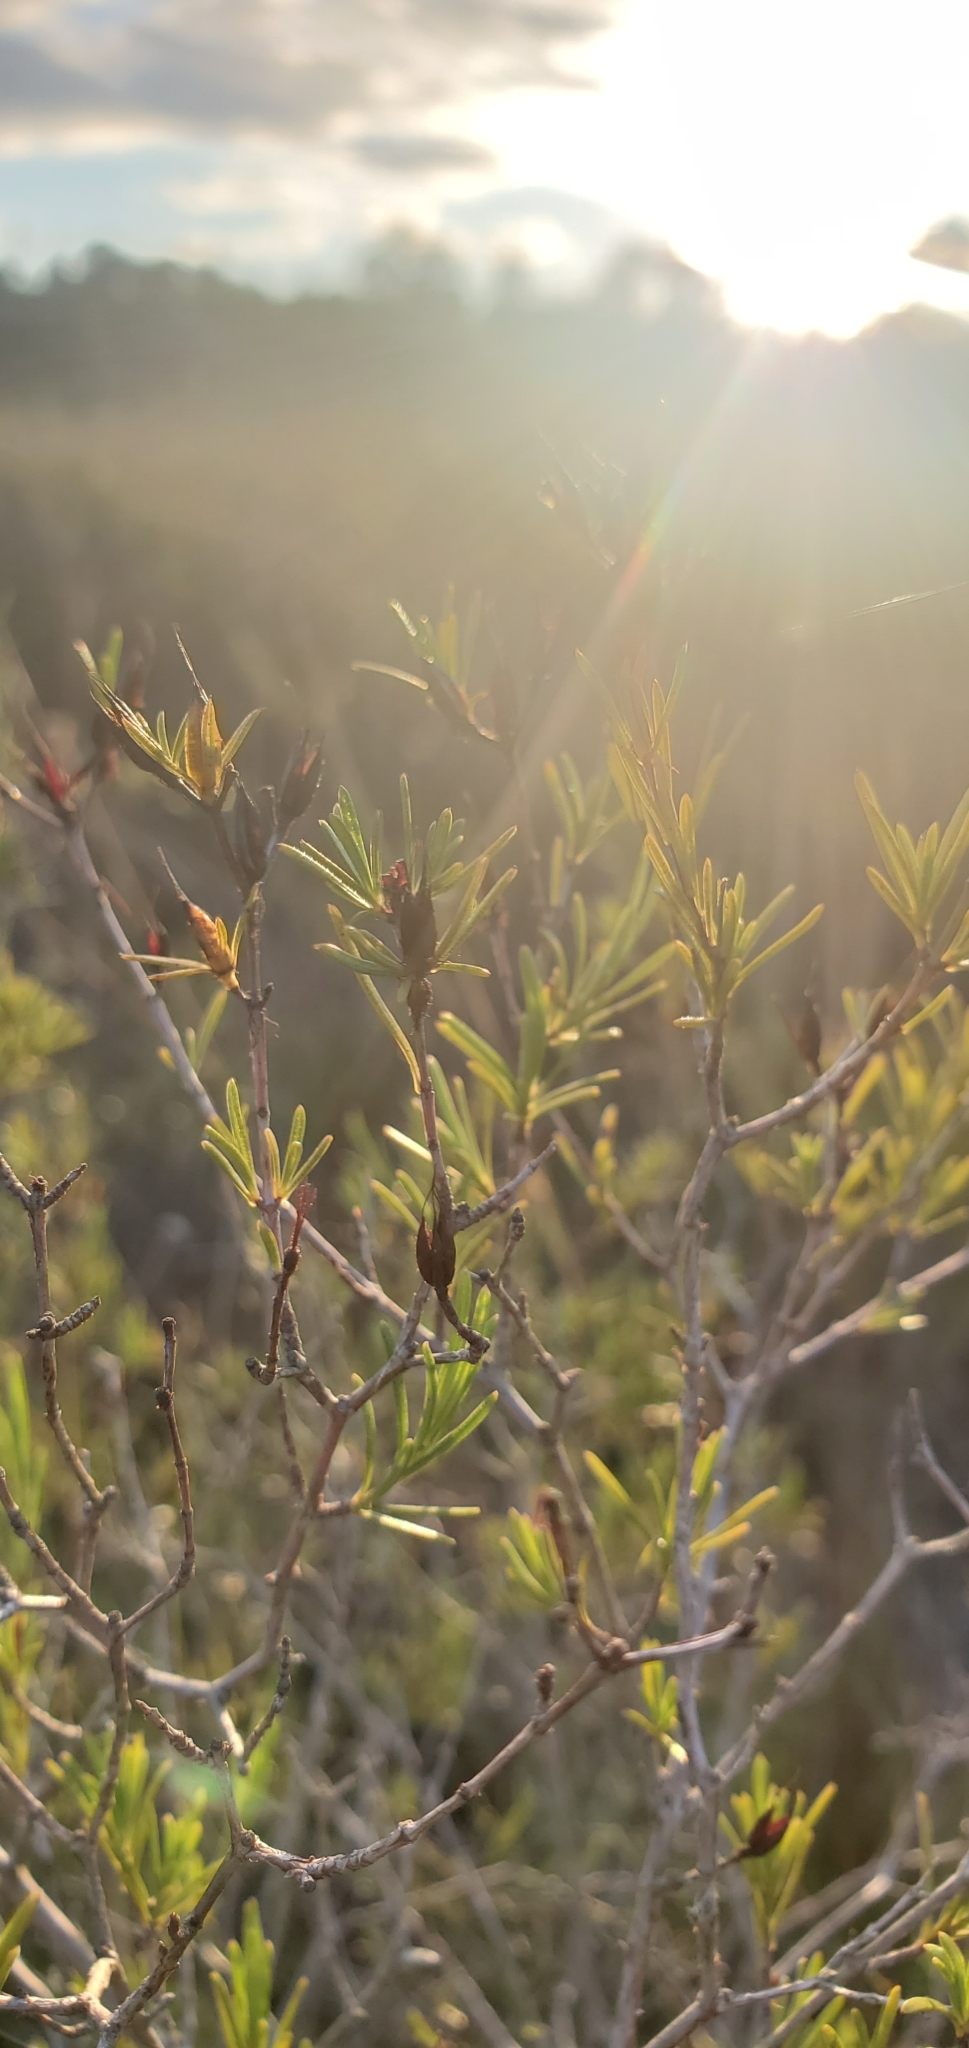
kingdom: Plantae
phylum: Tracheophyta
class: Magnoliopsida
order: Malpighiales
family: Hypericaceae
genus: Hypericum
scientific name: Hypericum fasciculatum
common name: Peelbark st. john's wort
